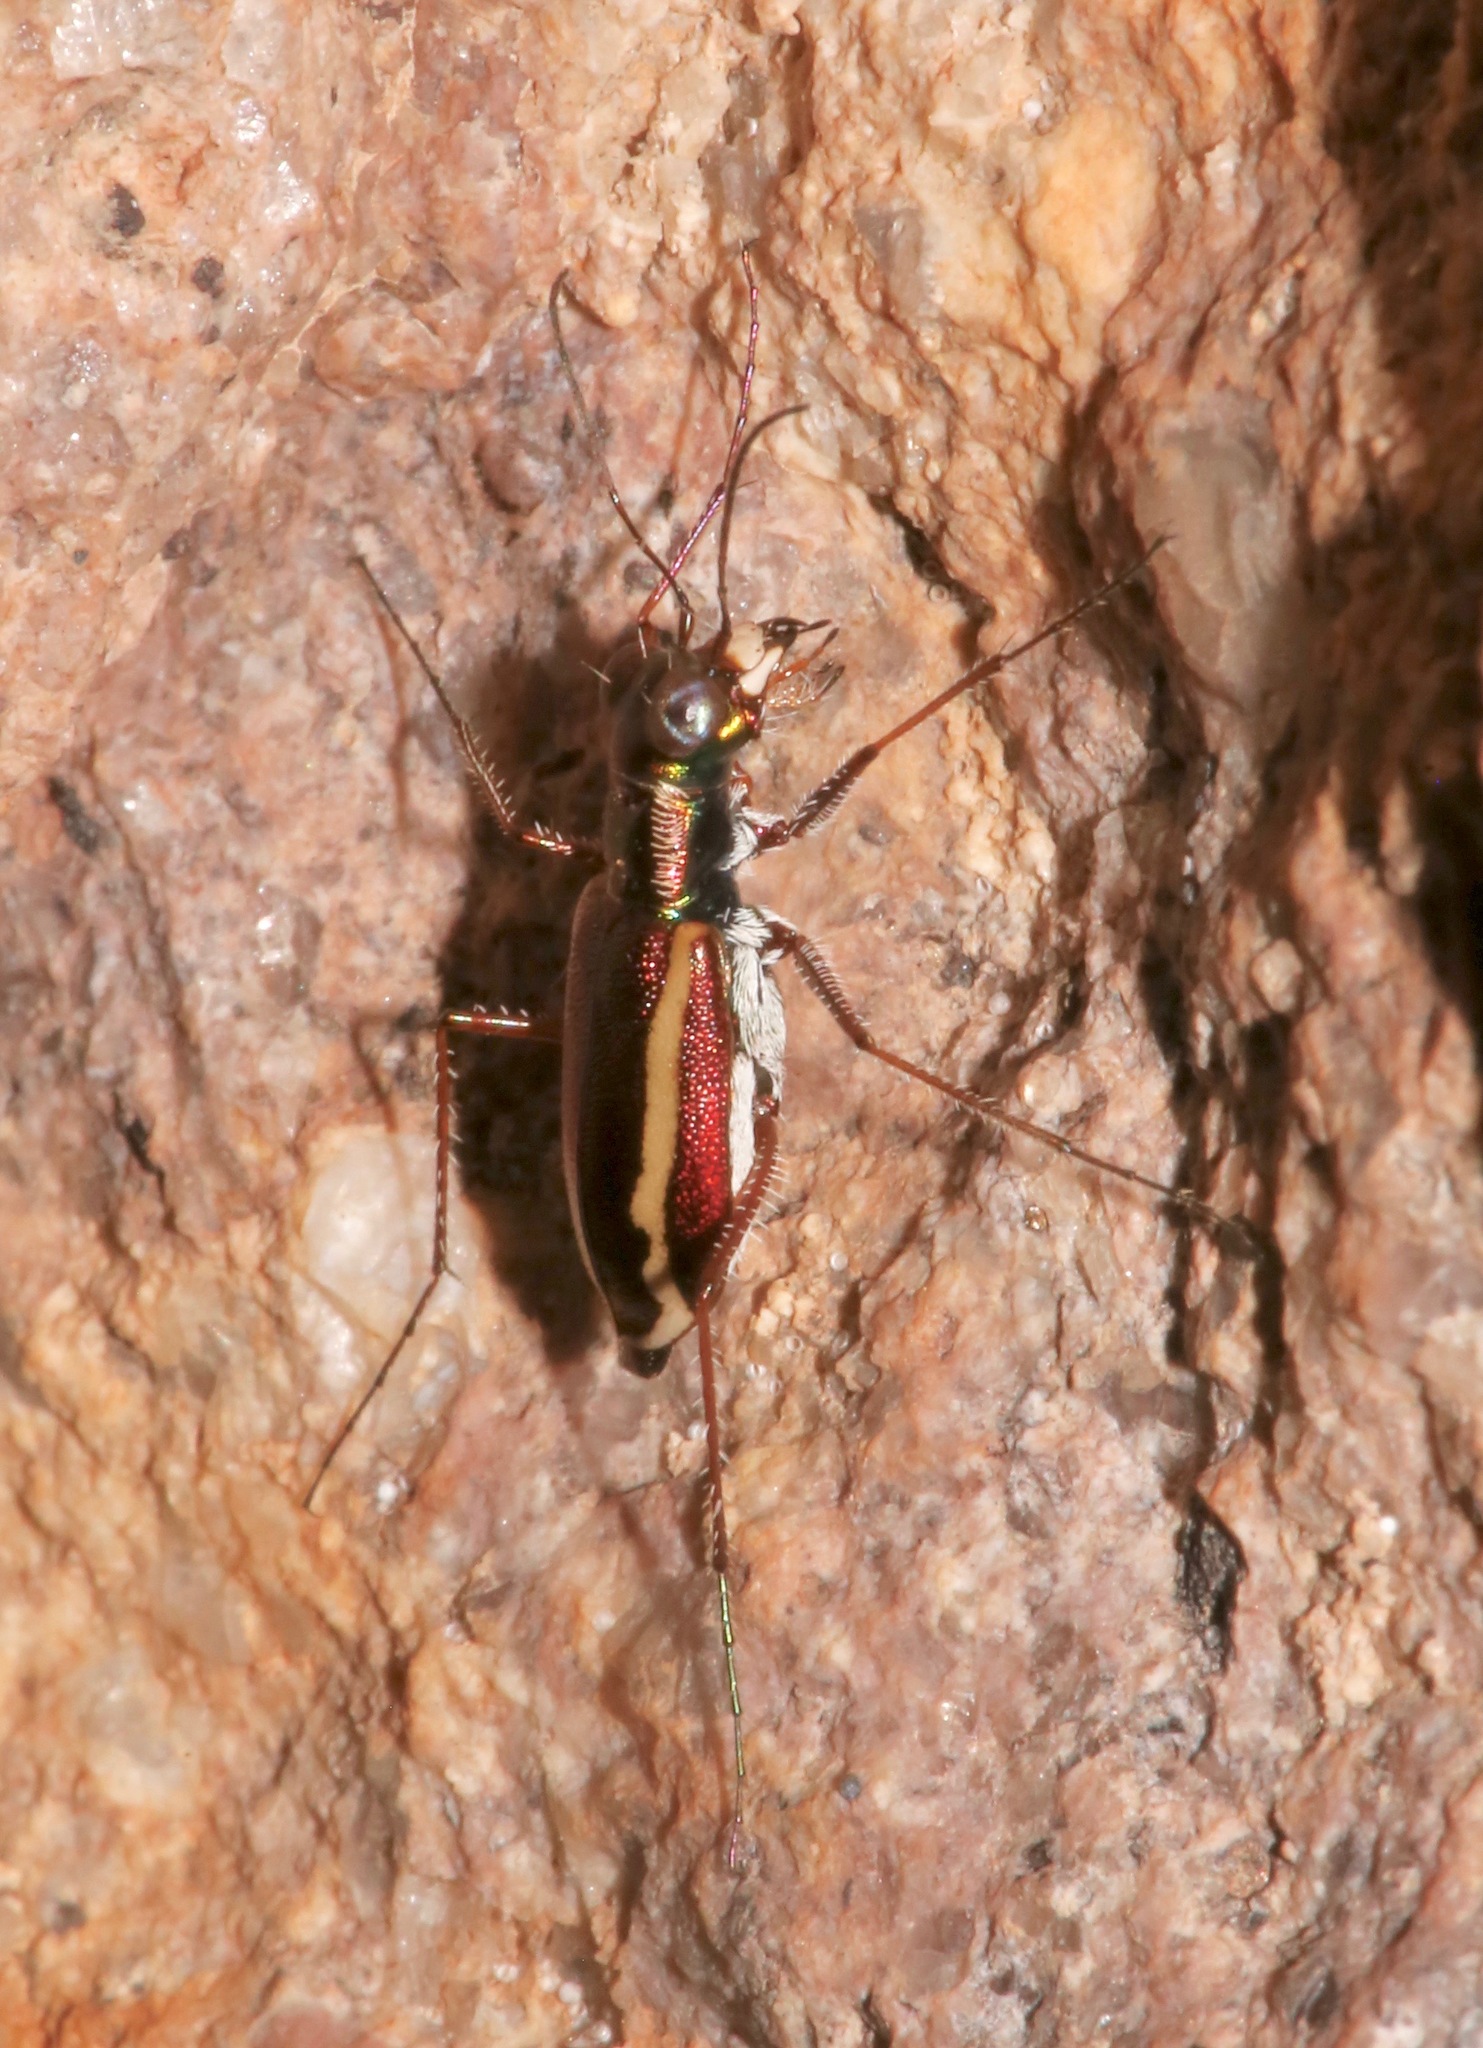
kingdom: Animalia
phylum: Arthropoda
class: Insecta
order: Coleoptera
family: Carabidae
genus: Cylindera
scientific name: Cylindera lemniscata
